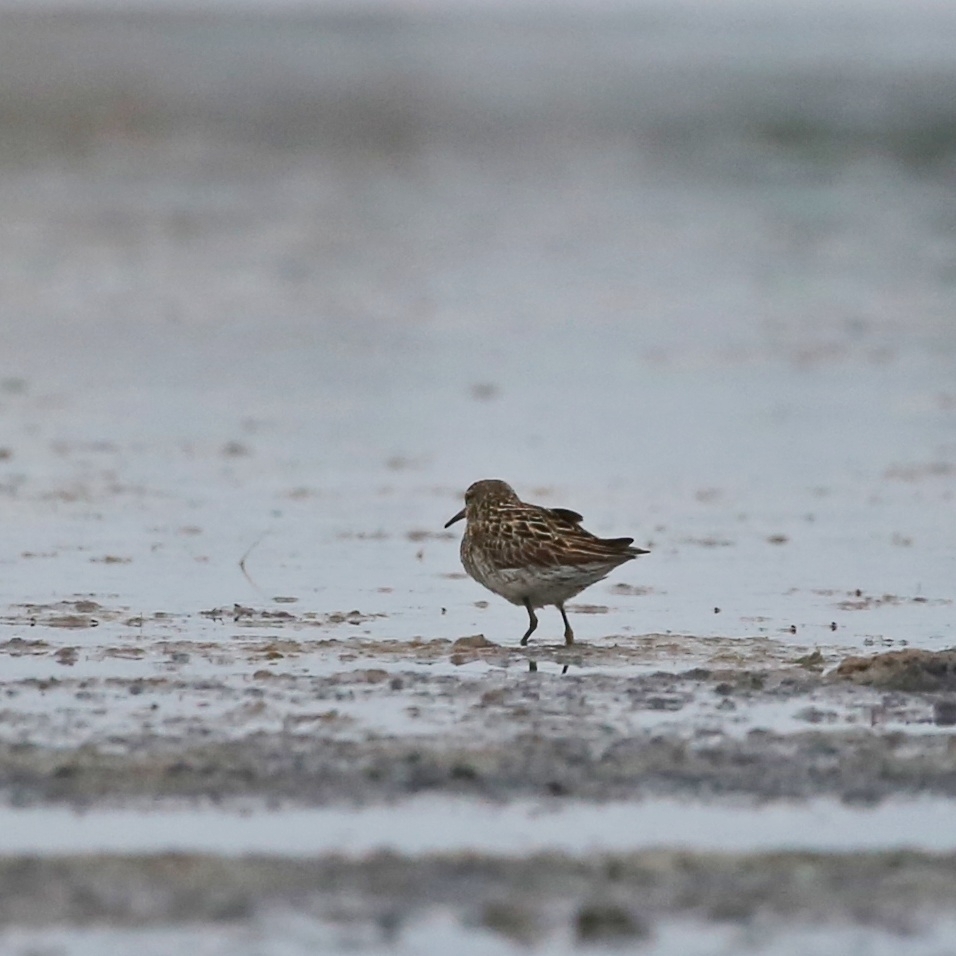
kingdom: Animalia
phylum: Chordata
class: Aves
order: Charadriiformes
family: Scolopacidae
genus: Calidris
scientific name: Calidris acuminata
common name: Sharp-tailed sandpiper
